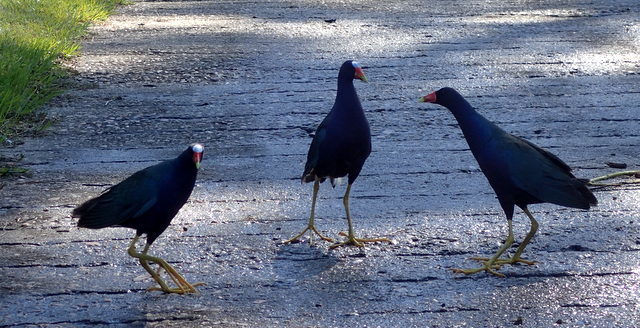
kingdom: Animalia
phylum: Chordata
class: Aves
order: Gruiformes
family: Rallidae
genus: Porphyrio
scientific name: Porphyrio martinica
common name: Purple gallinule
